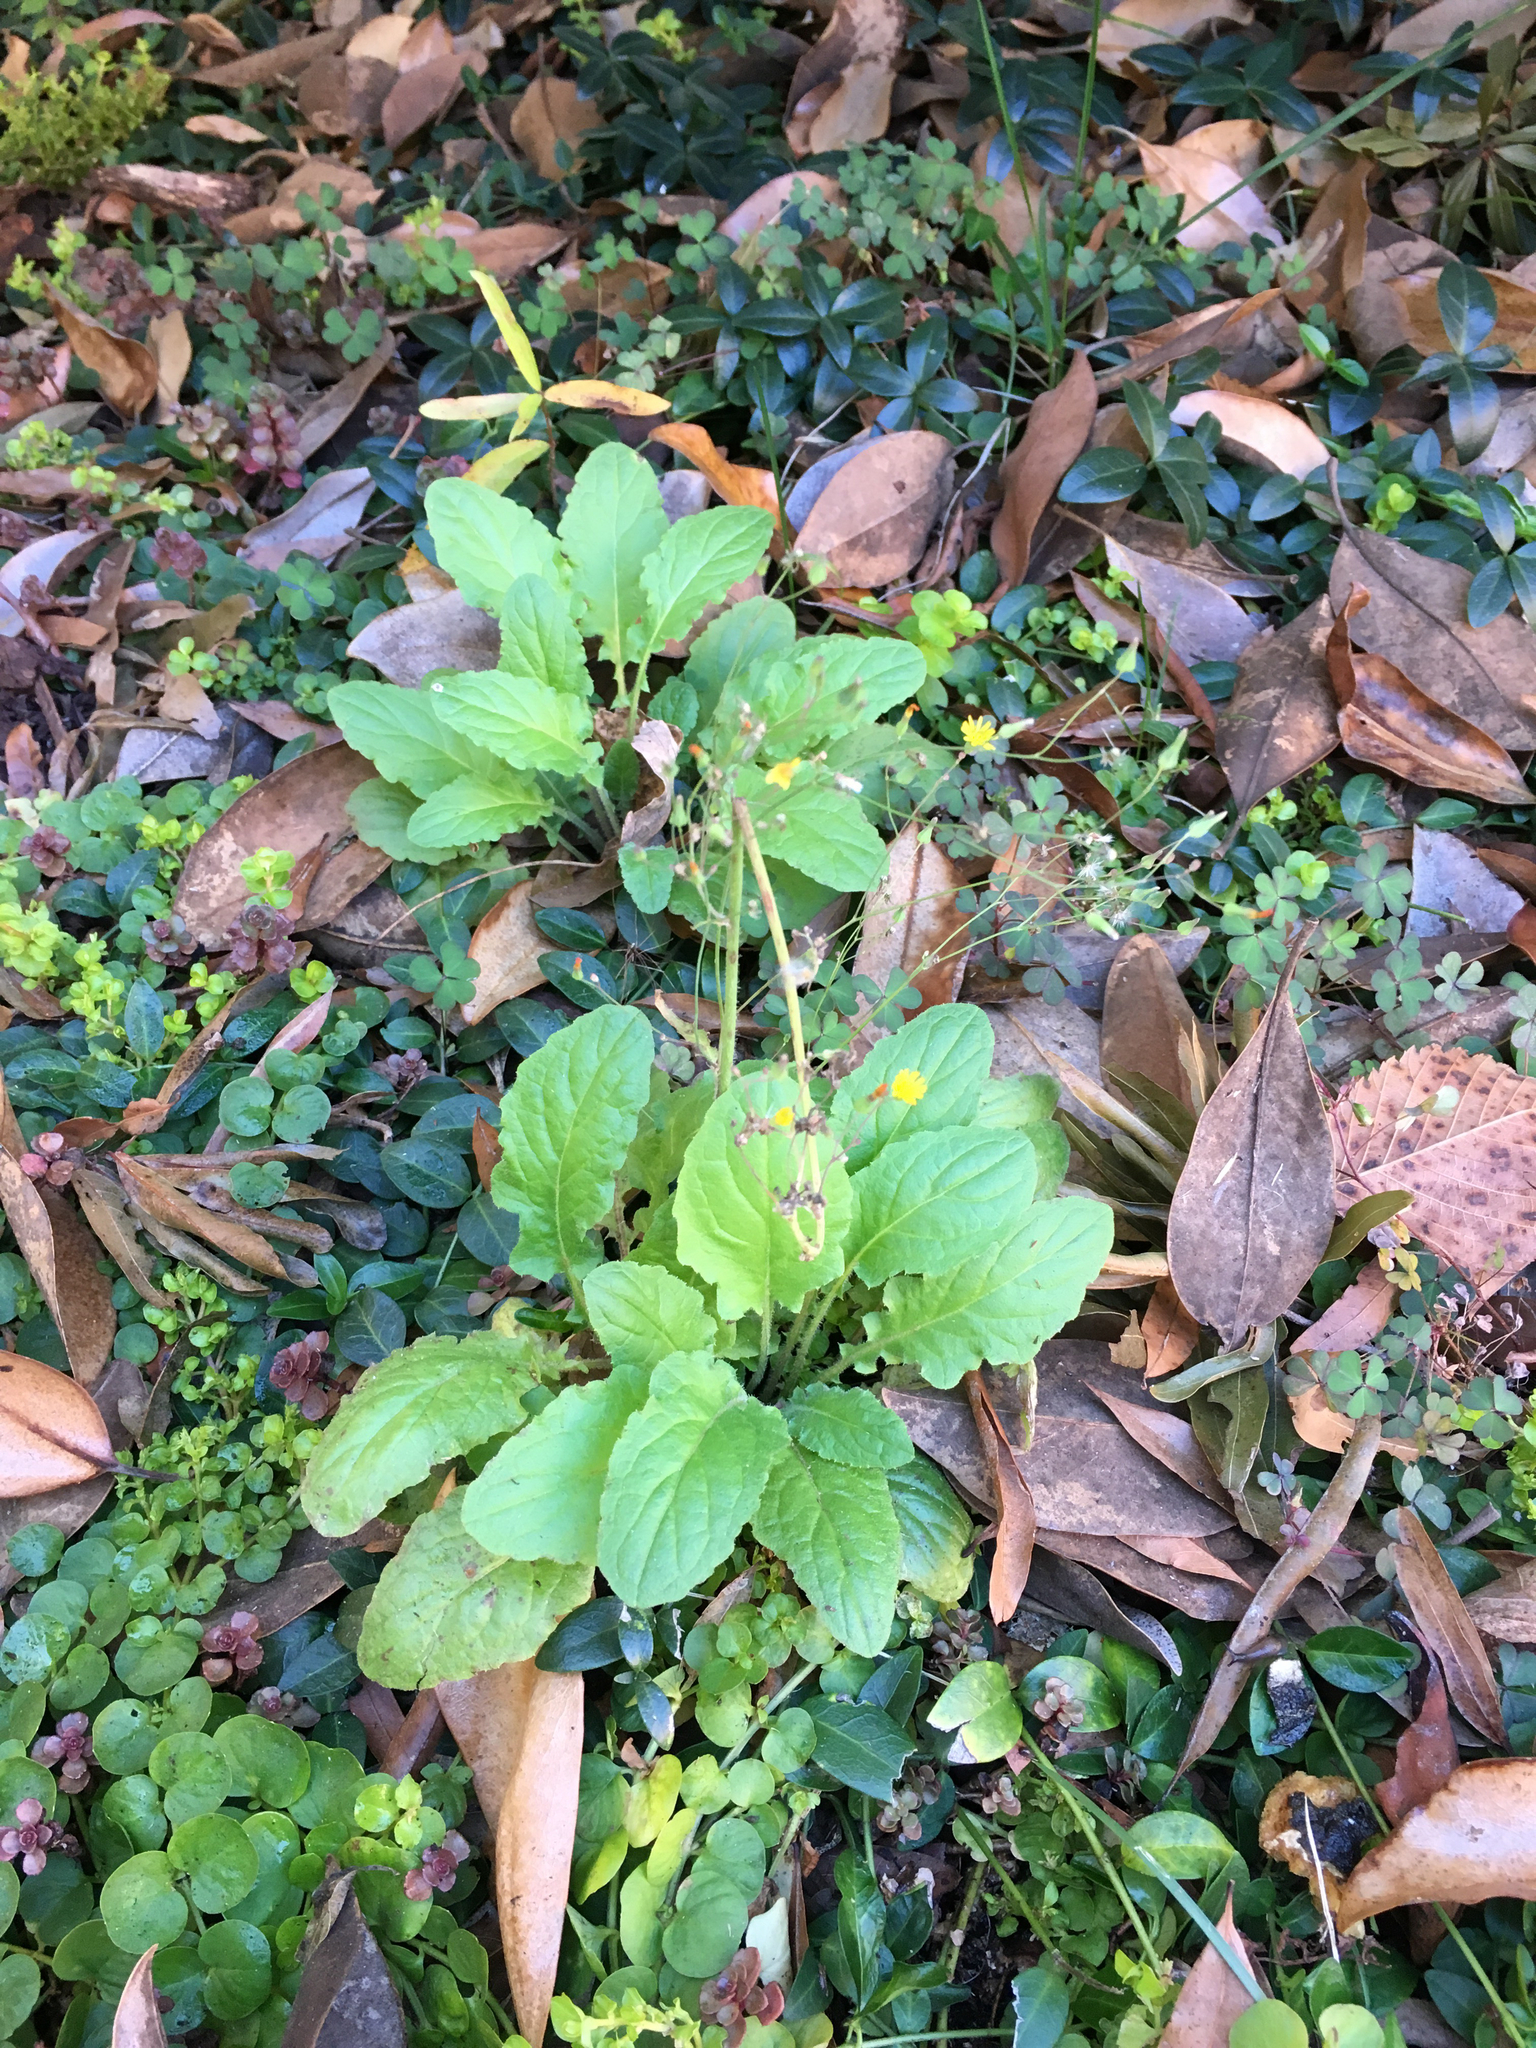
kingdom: Plantae
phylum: Tracheophyta
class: Magnoliopsida
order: Asterales
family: Asteraceae
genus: Youngia
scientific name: Youngia japonica
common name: Oriental false hawksbeard
